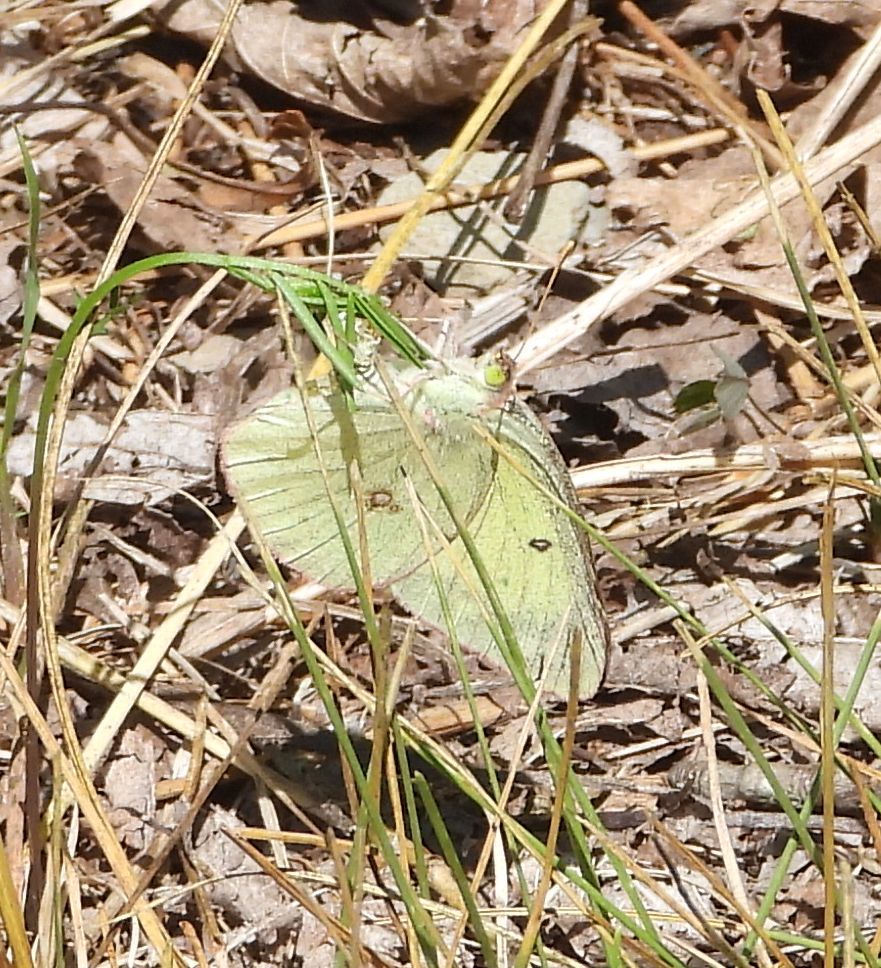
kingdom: Animalia
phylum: Arthropoda
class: Insecta
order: Lepidoptera
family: Pieridae
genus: Colias
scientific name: Colias philodice
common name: Clouded sulphur
